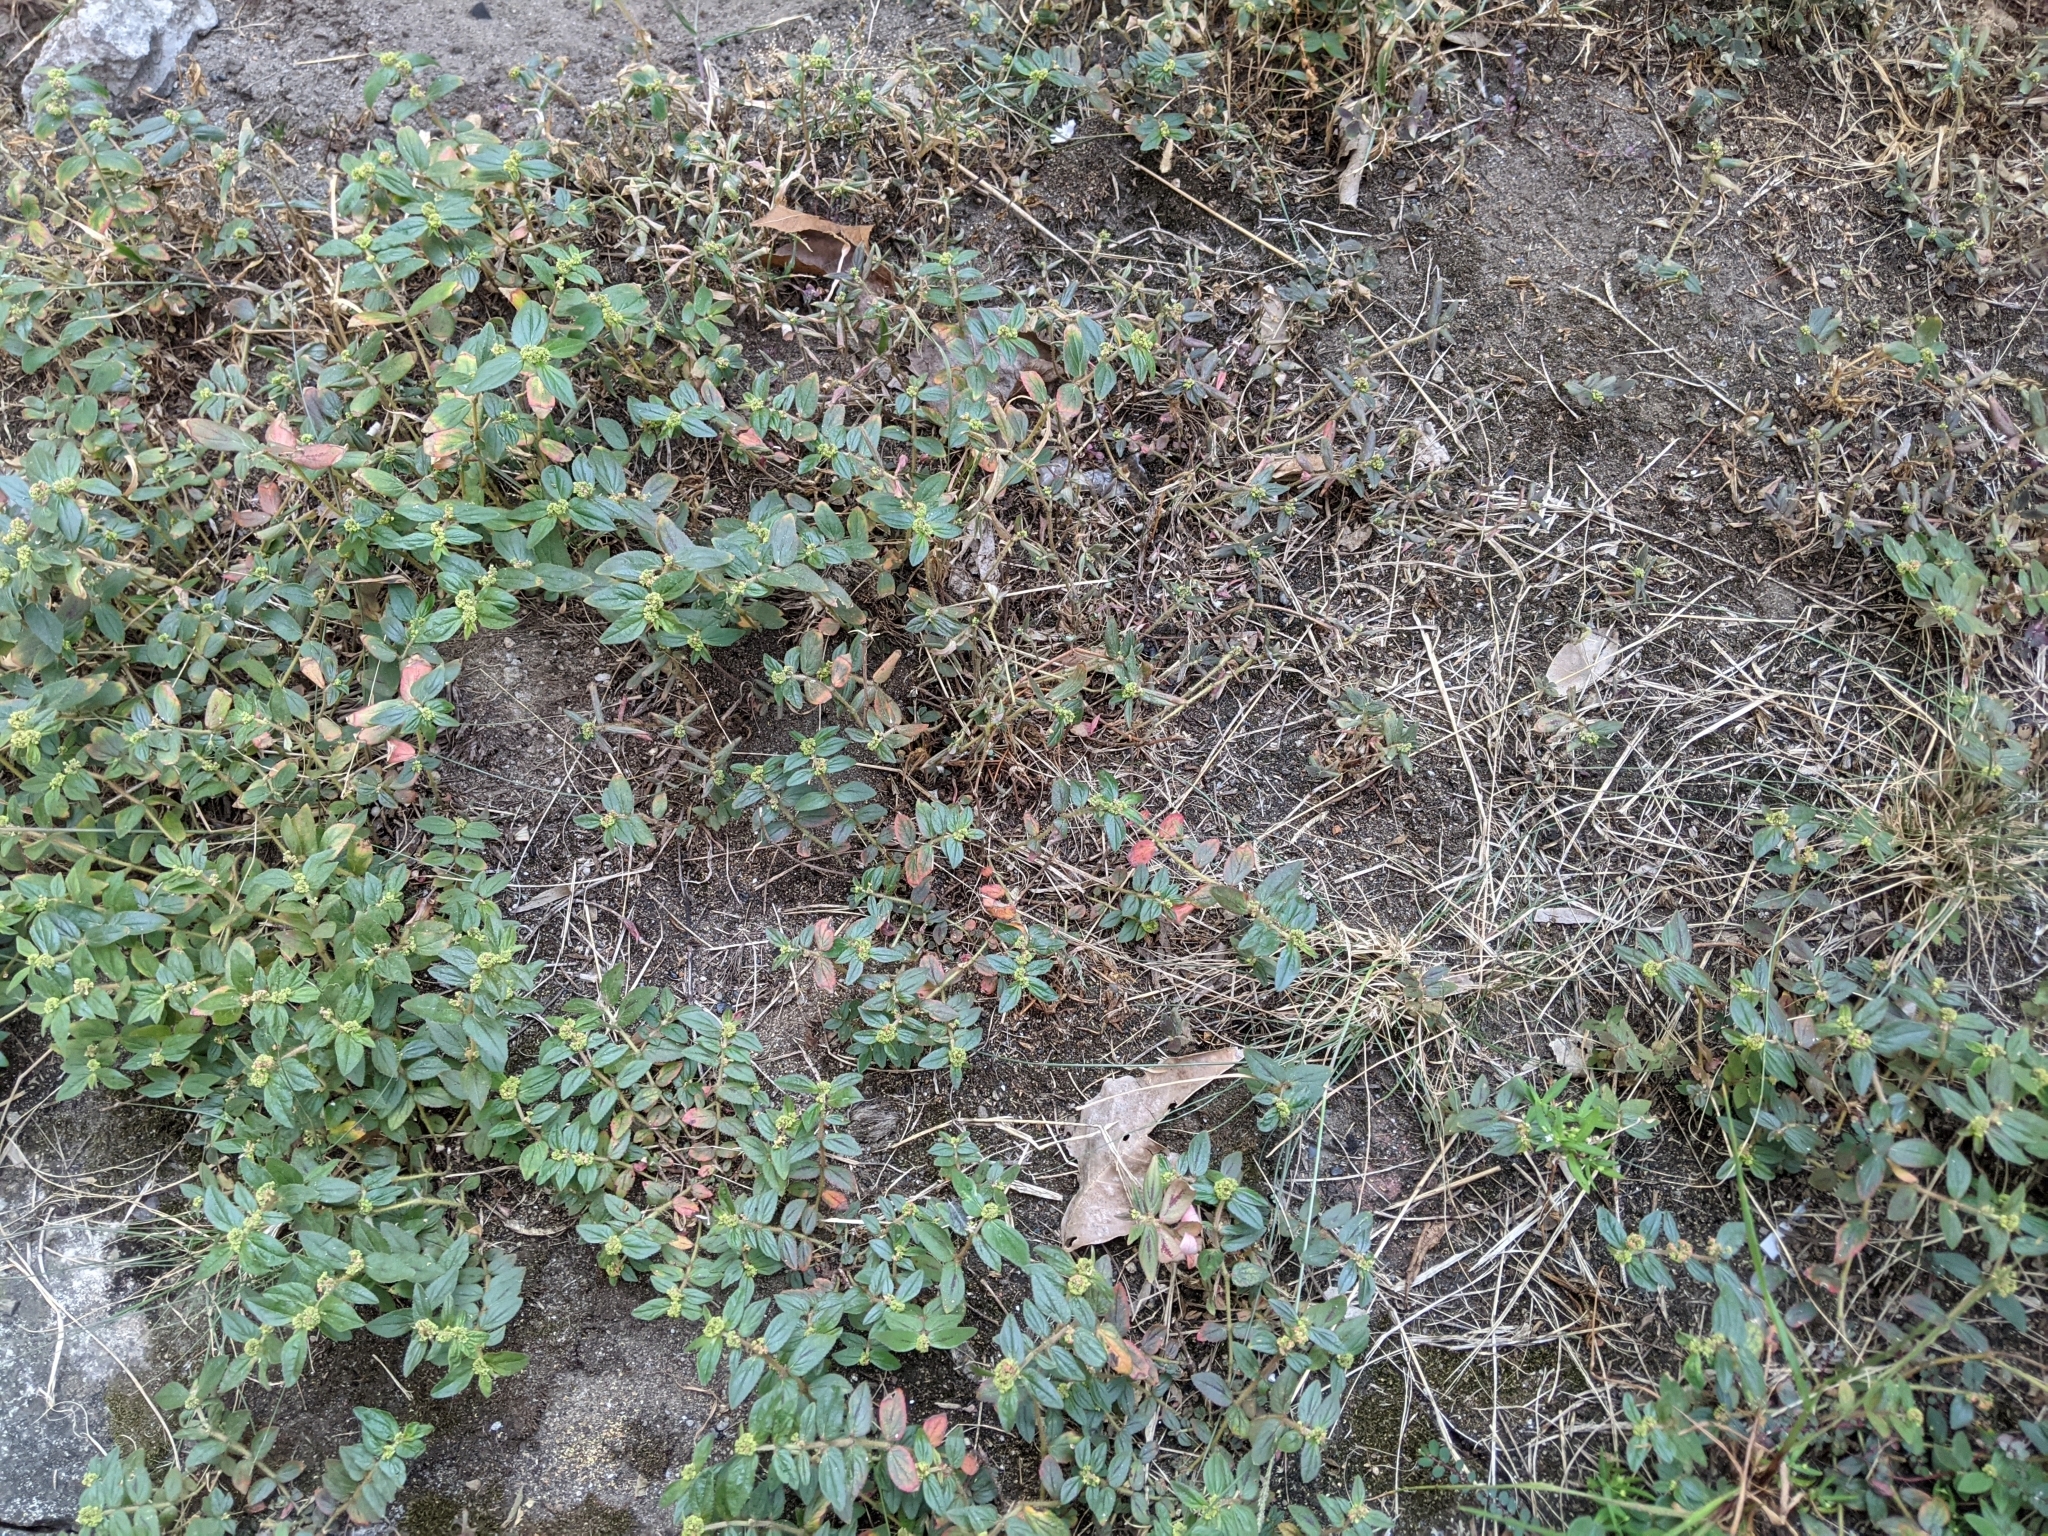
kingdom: Plantae
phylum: Tracheophyta
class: Magnoliopsida
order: Malpighiales
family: Euphorbiaceae
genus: Euphorbia
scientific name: Euphorbia hirta
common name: Pillpod sandmat
